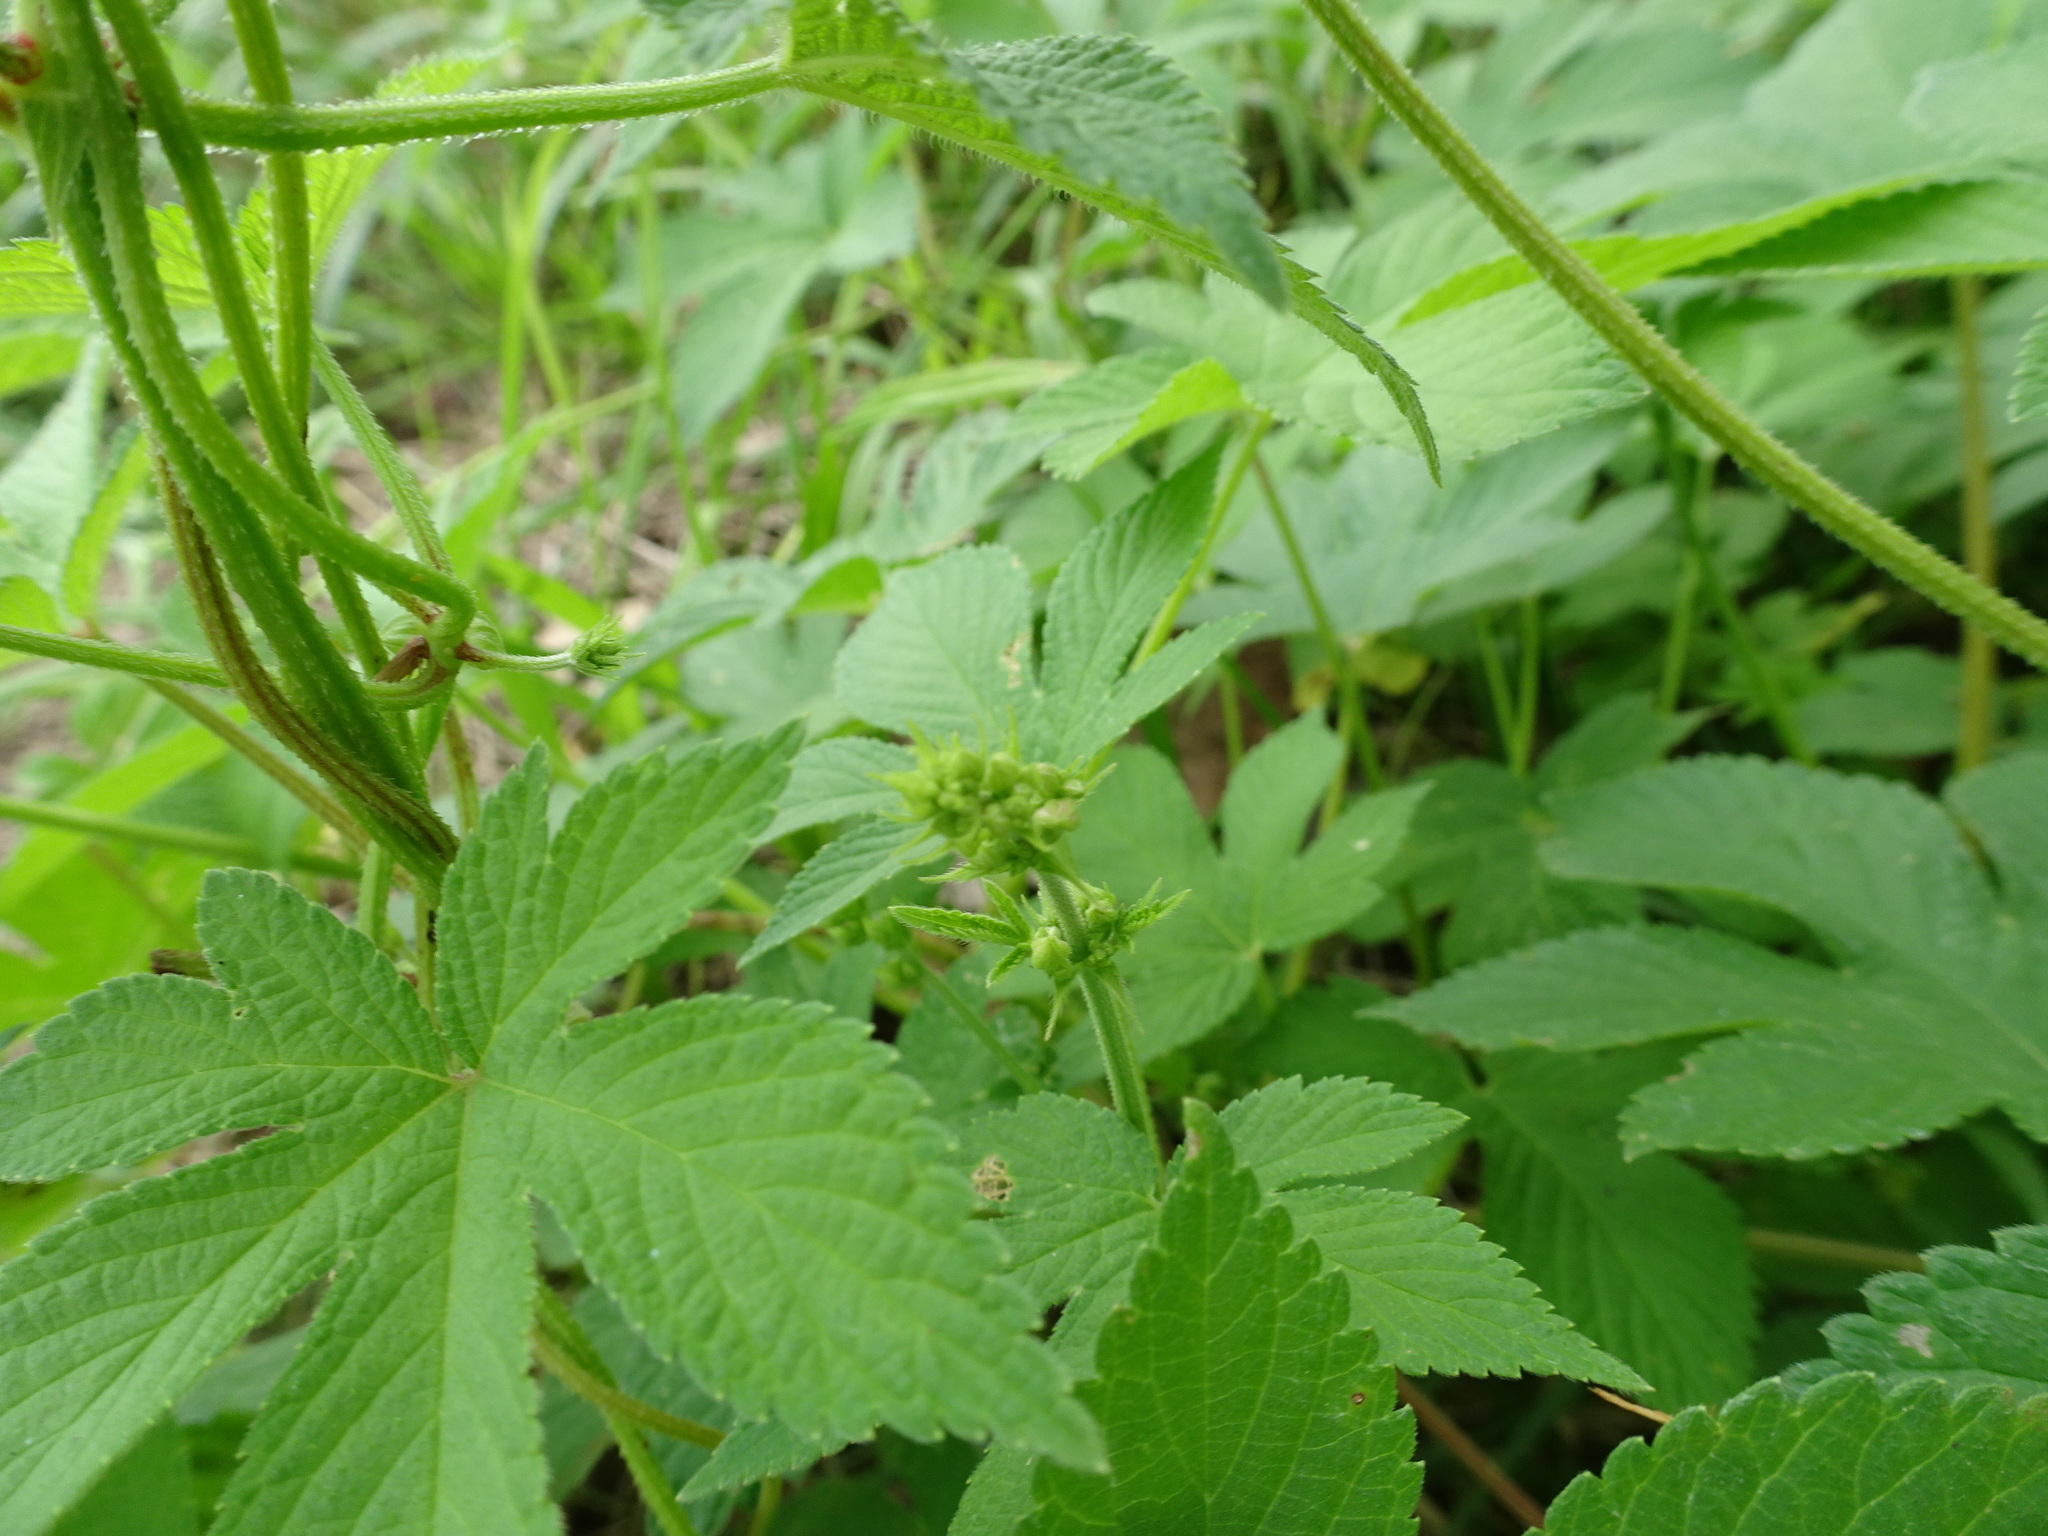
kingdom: Plantae
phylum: Tracheophyta
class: Magnoliopsida
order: Rosales
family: Cannabaceae
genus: Humulus
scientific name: Humulus scandens
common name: Japanese hop
